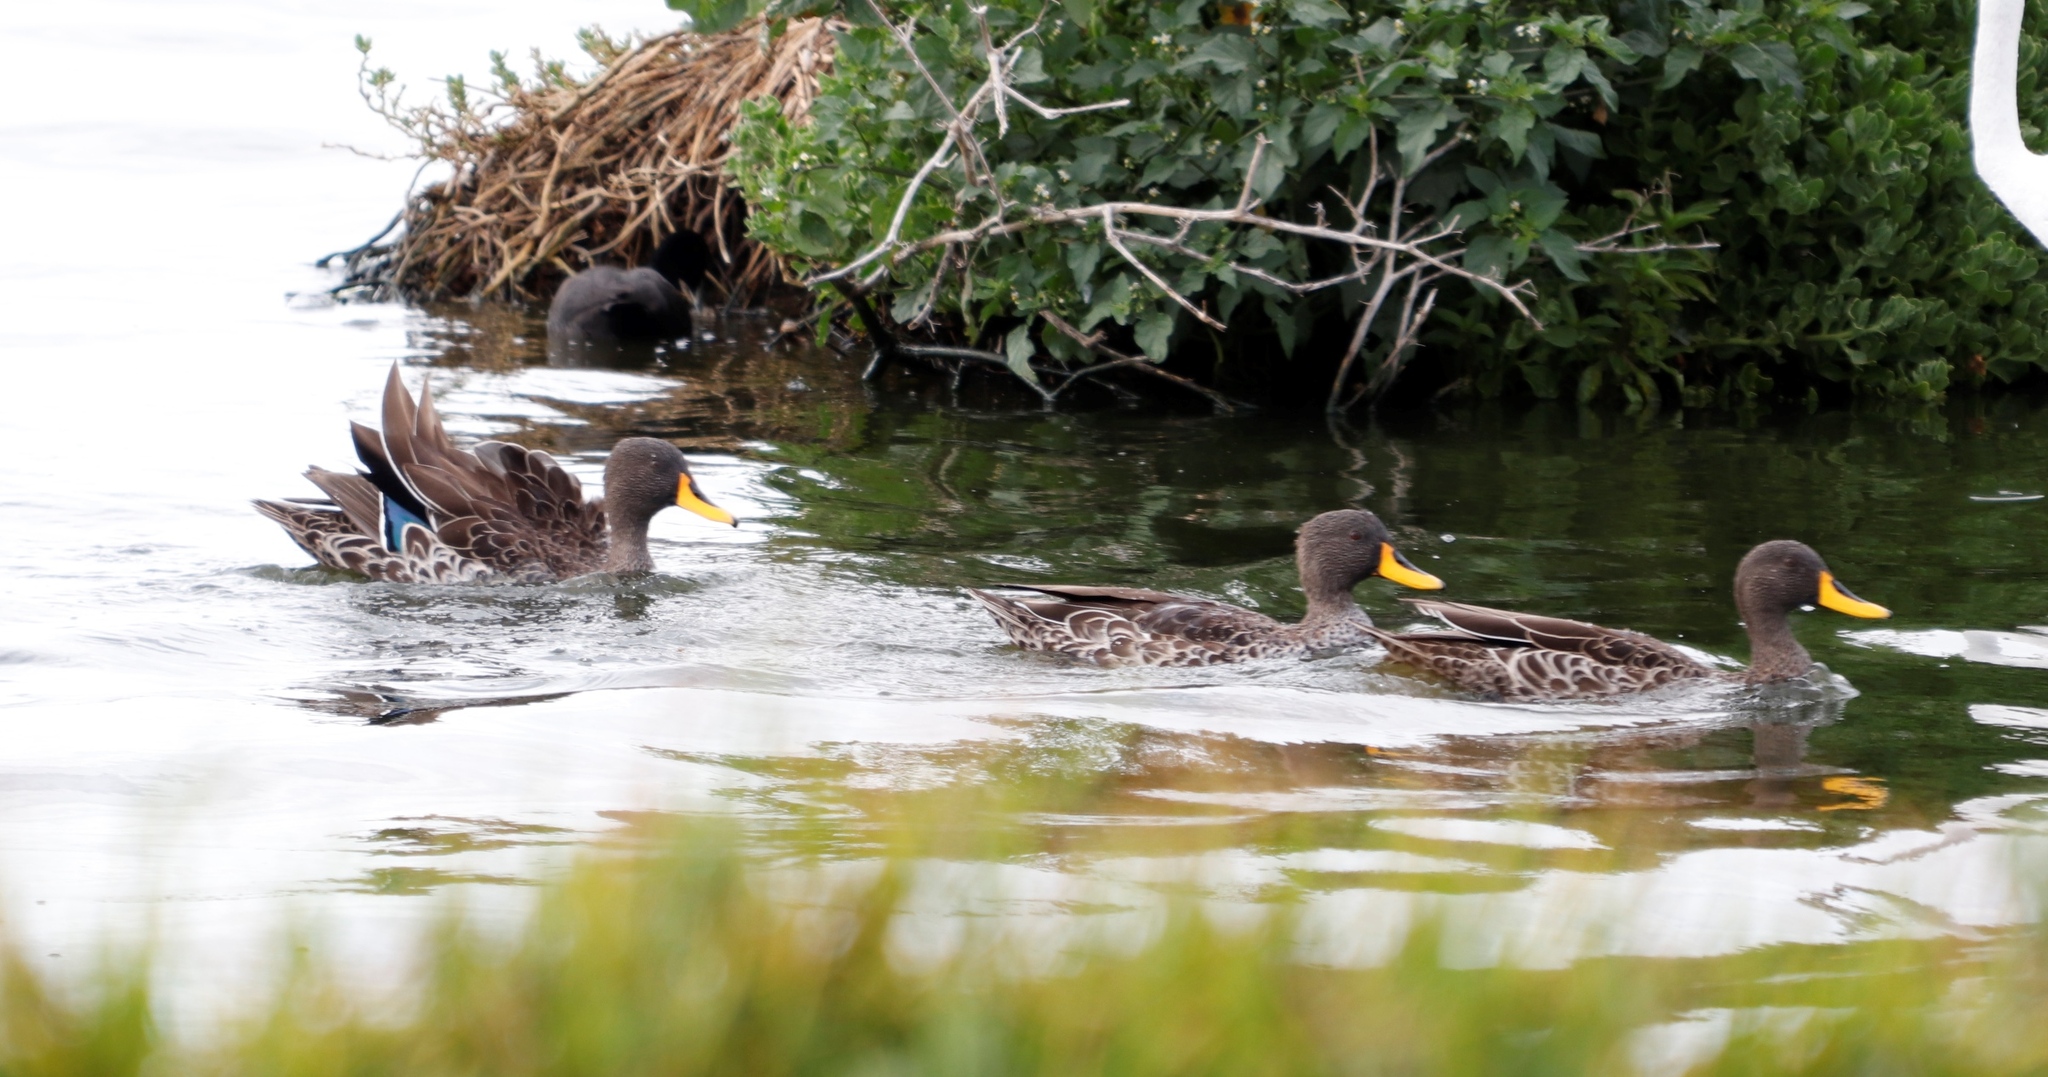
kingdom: Animalia
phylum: Chordata
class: Aves
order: Anseriformes
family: Anatidae
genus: Anas
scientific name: Anas undulata
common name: Yellow-billed duck
